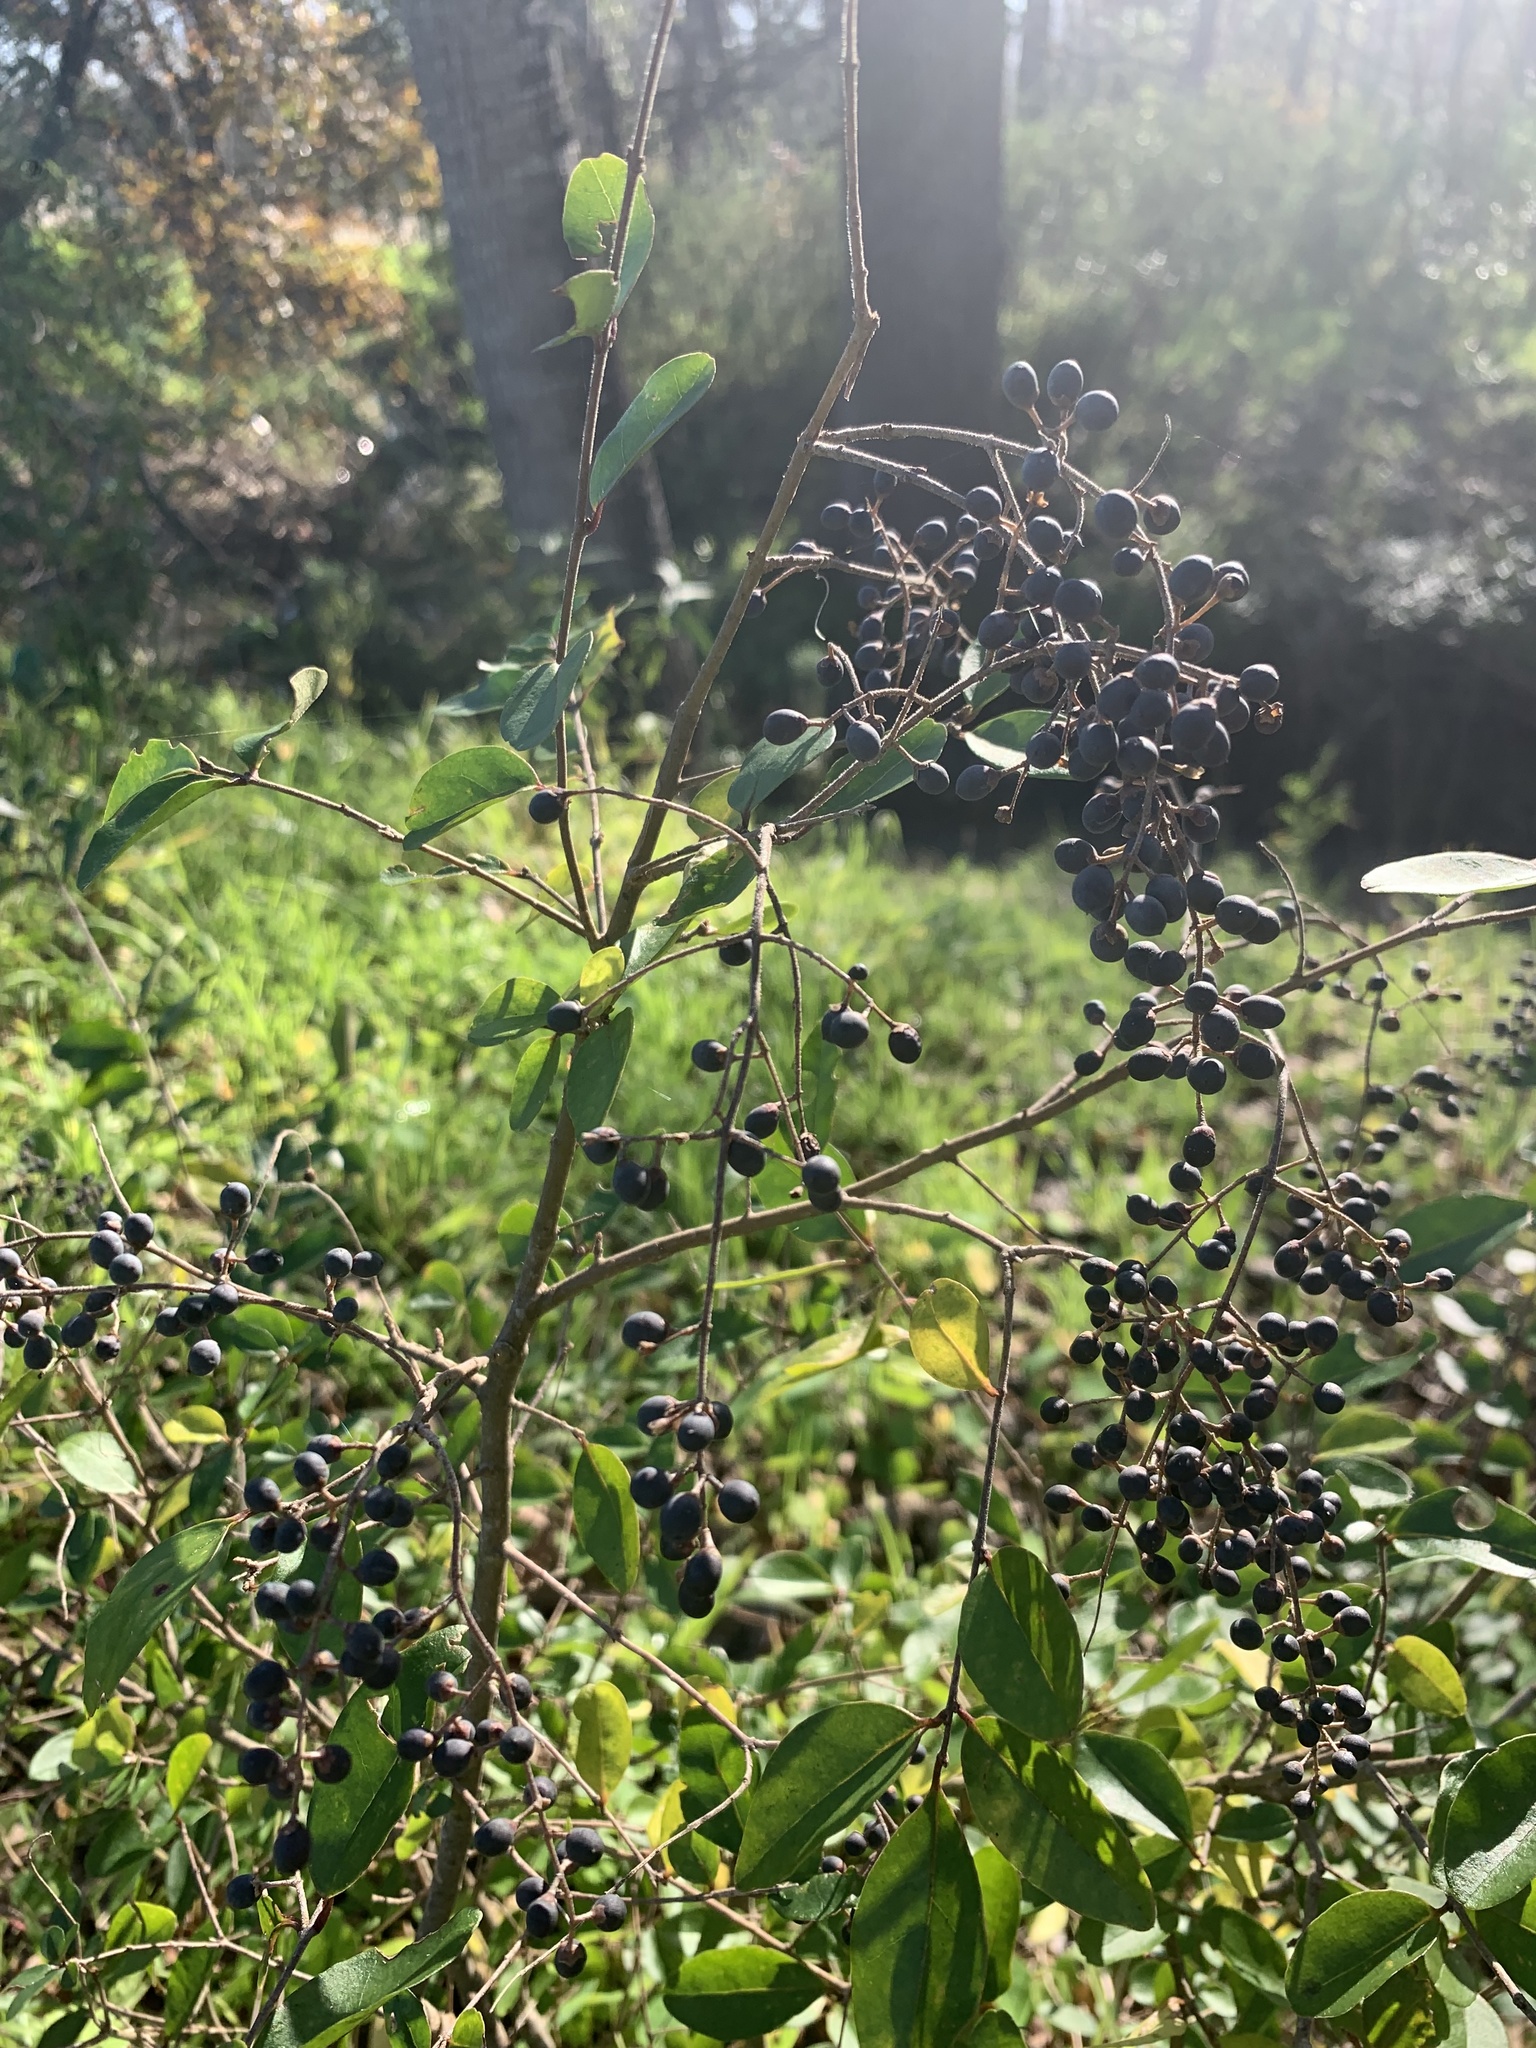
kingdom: Plantae
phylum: Tracheophyta
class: Magnoliopsida
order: Lamiales
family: Oleaceae
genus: Ligustrum
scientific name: Ligustrum sinense
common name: Chinese privet
